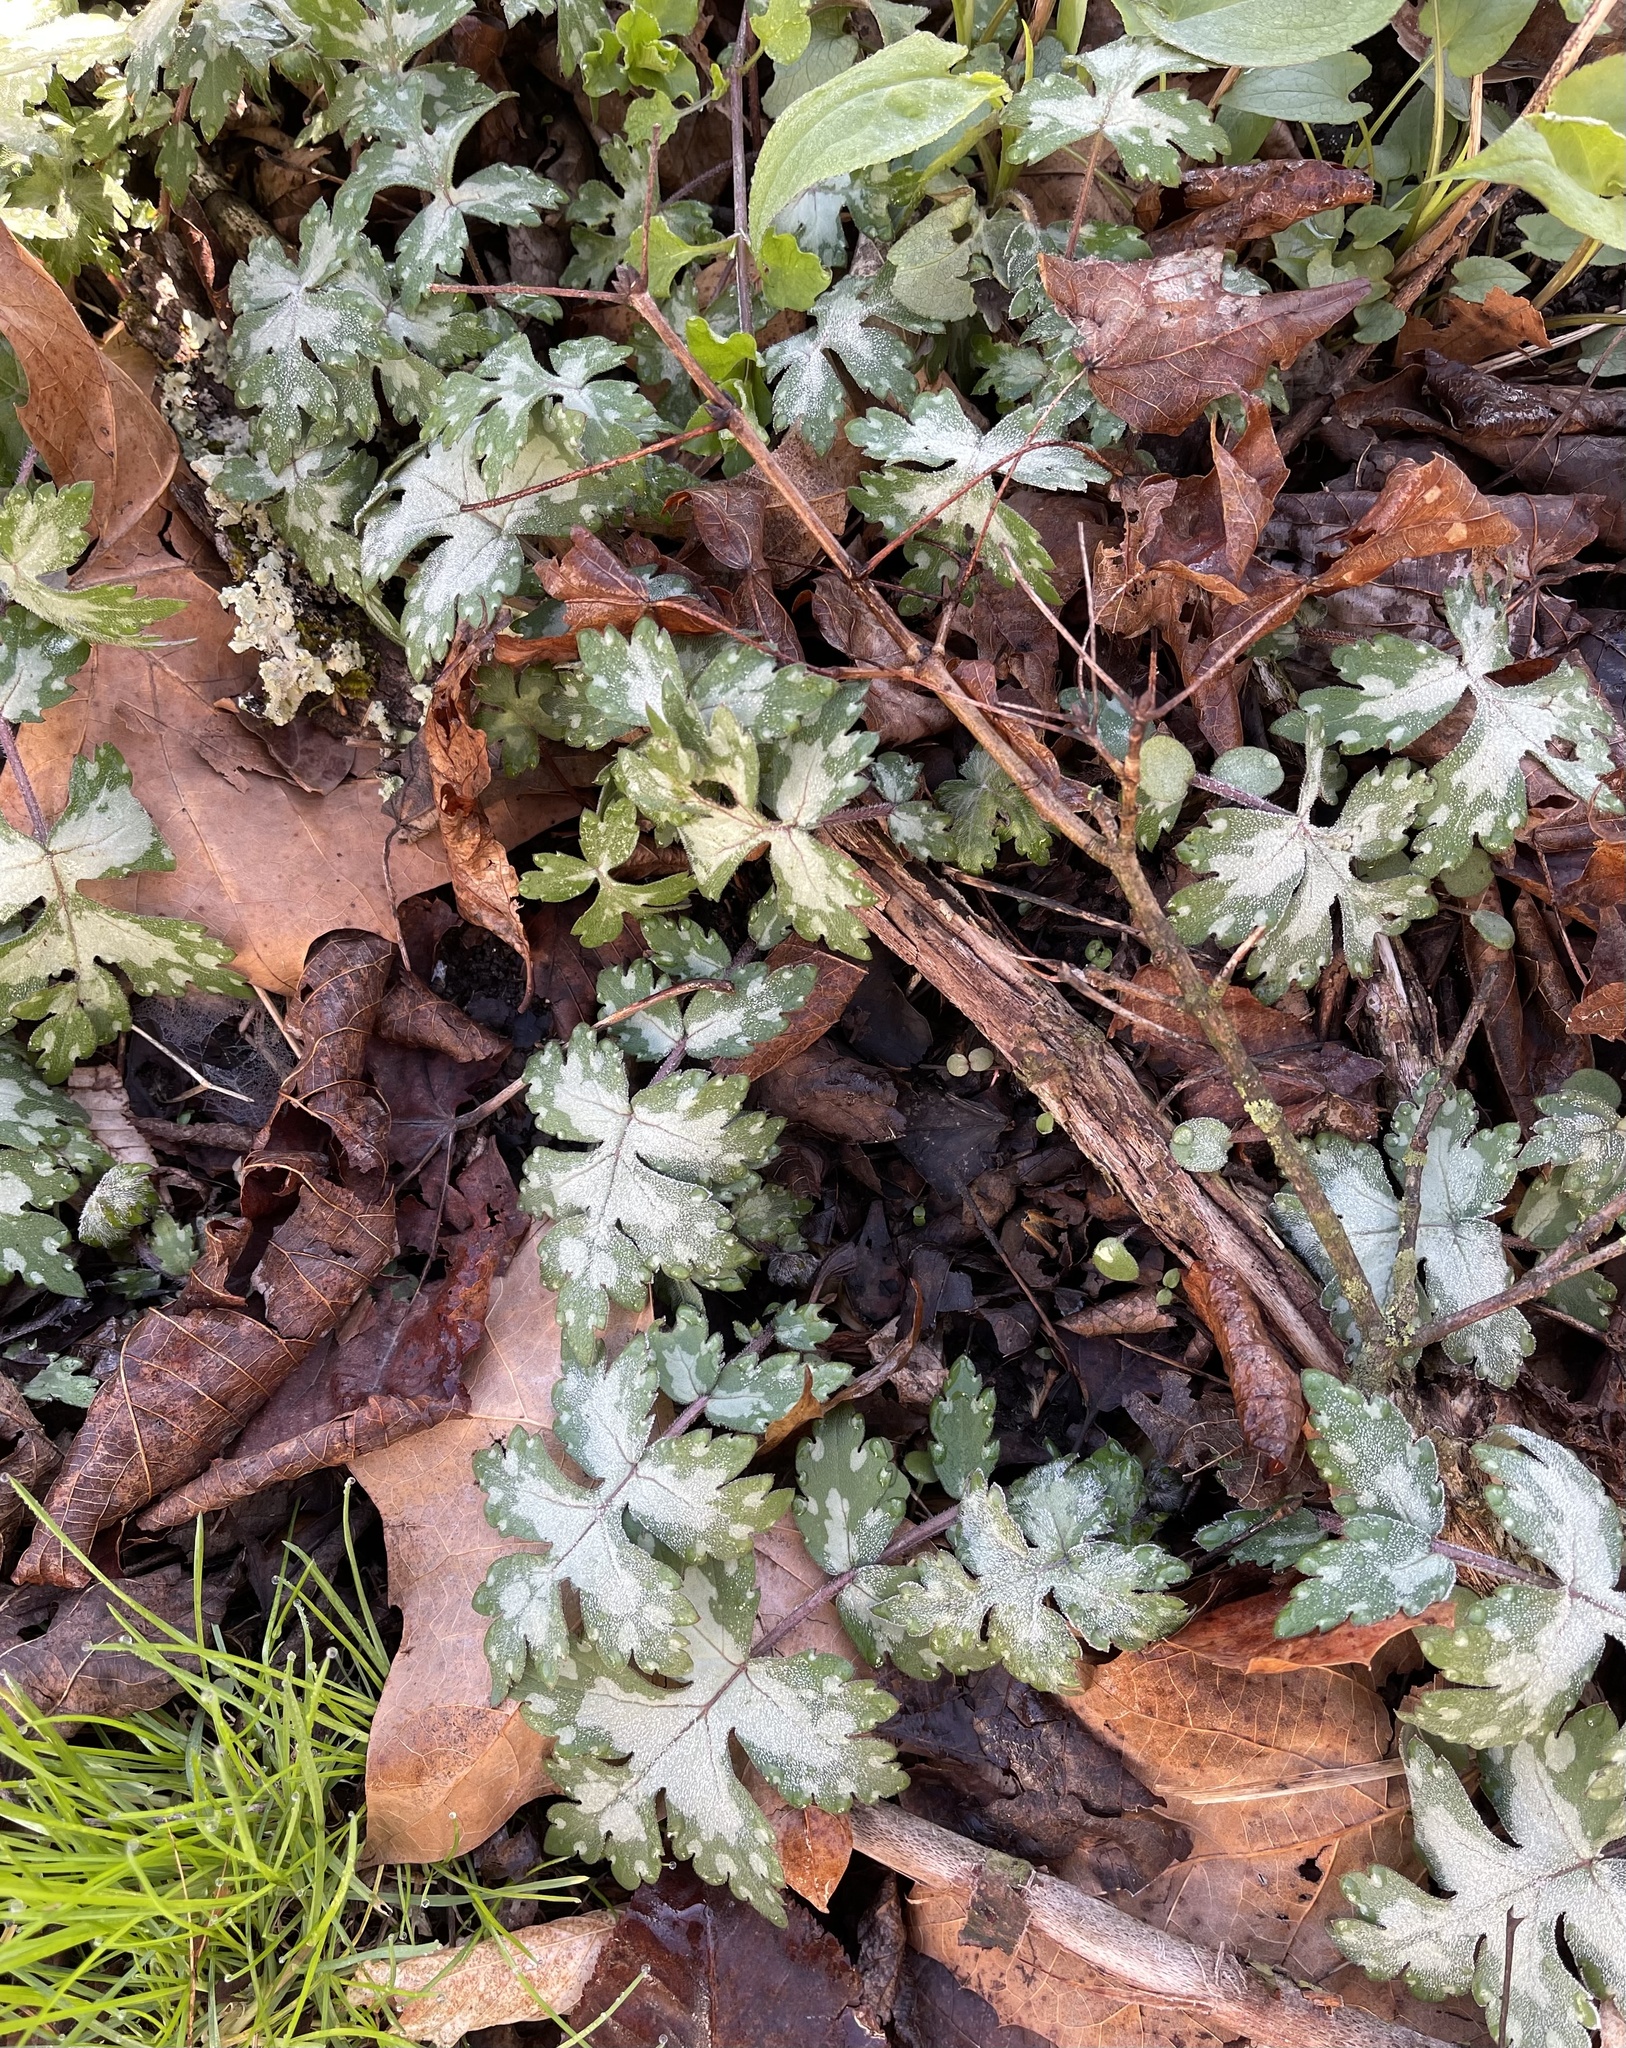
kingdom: Plantae
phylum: Tracheophyta
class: Magnoliopsida
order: Boraginales
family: Hydrophyllaceae
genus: Hydrophyllum
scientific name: Hydrophyllum appendiculatum
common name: Appendaged waterleaf
